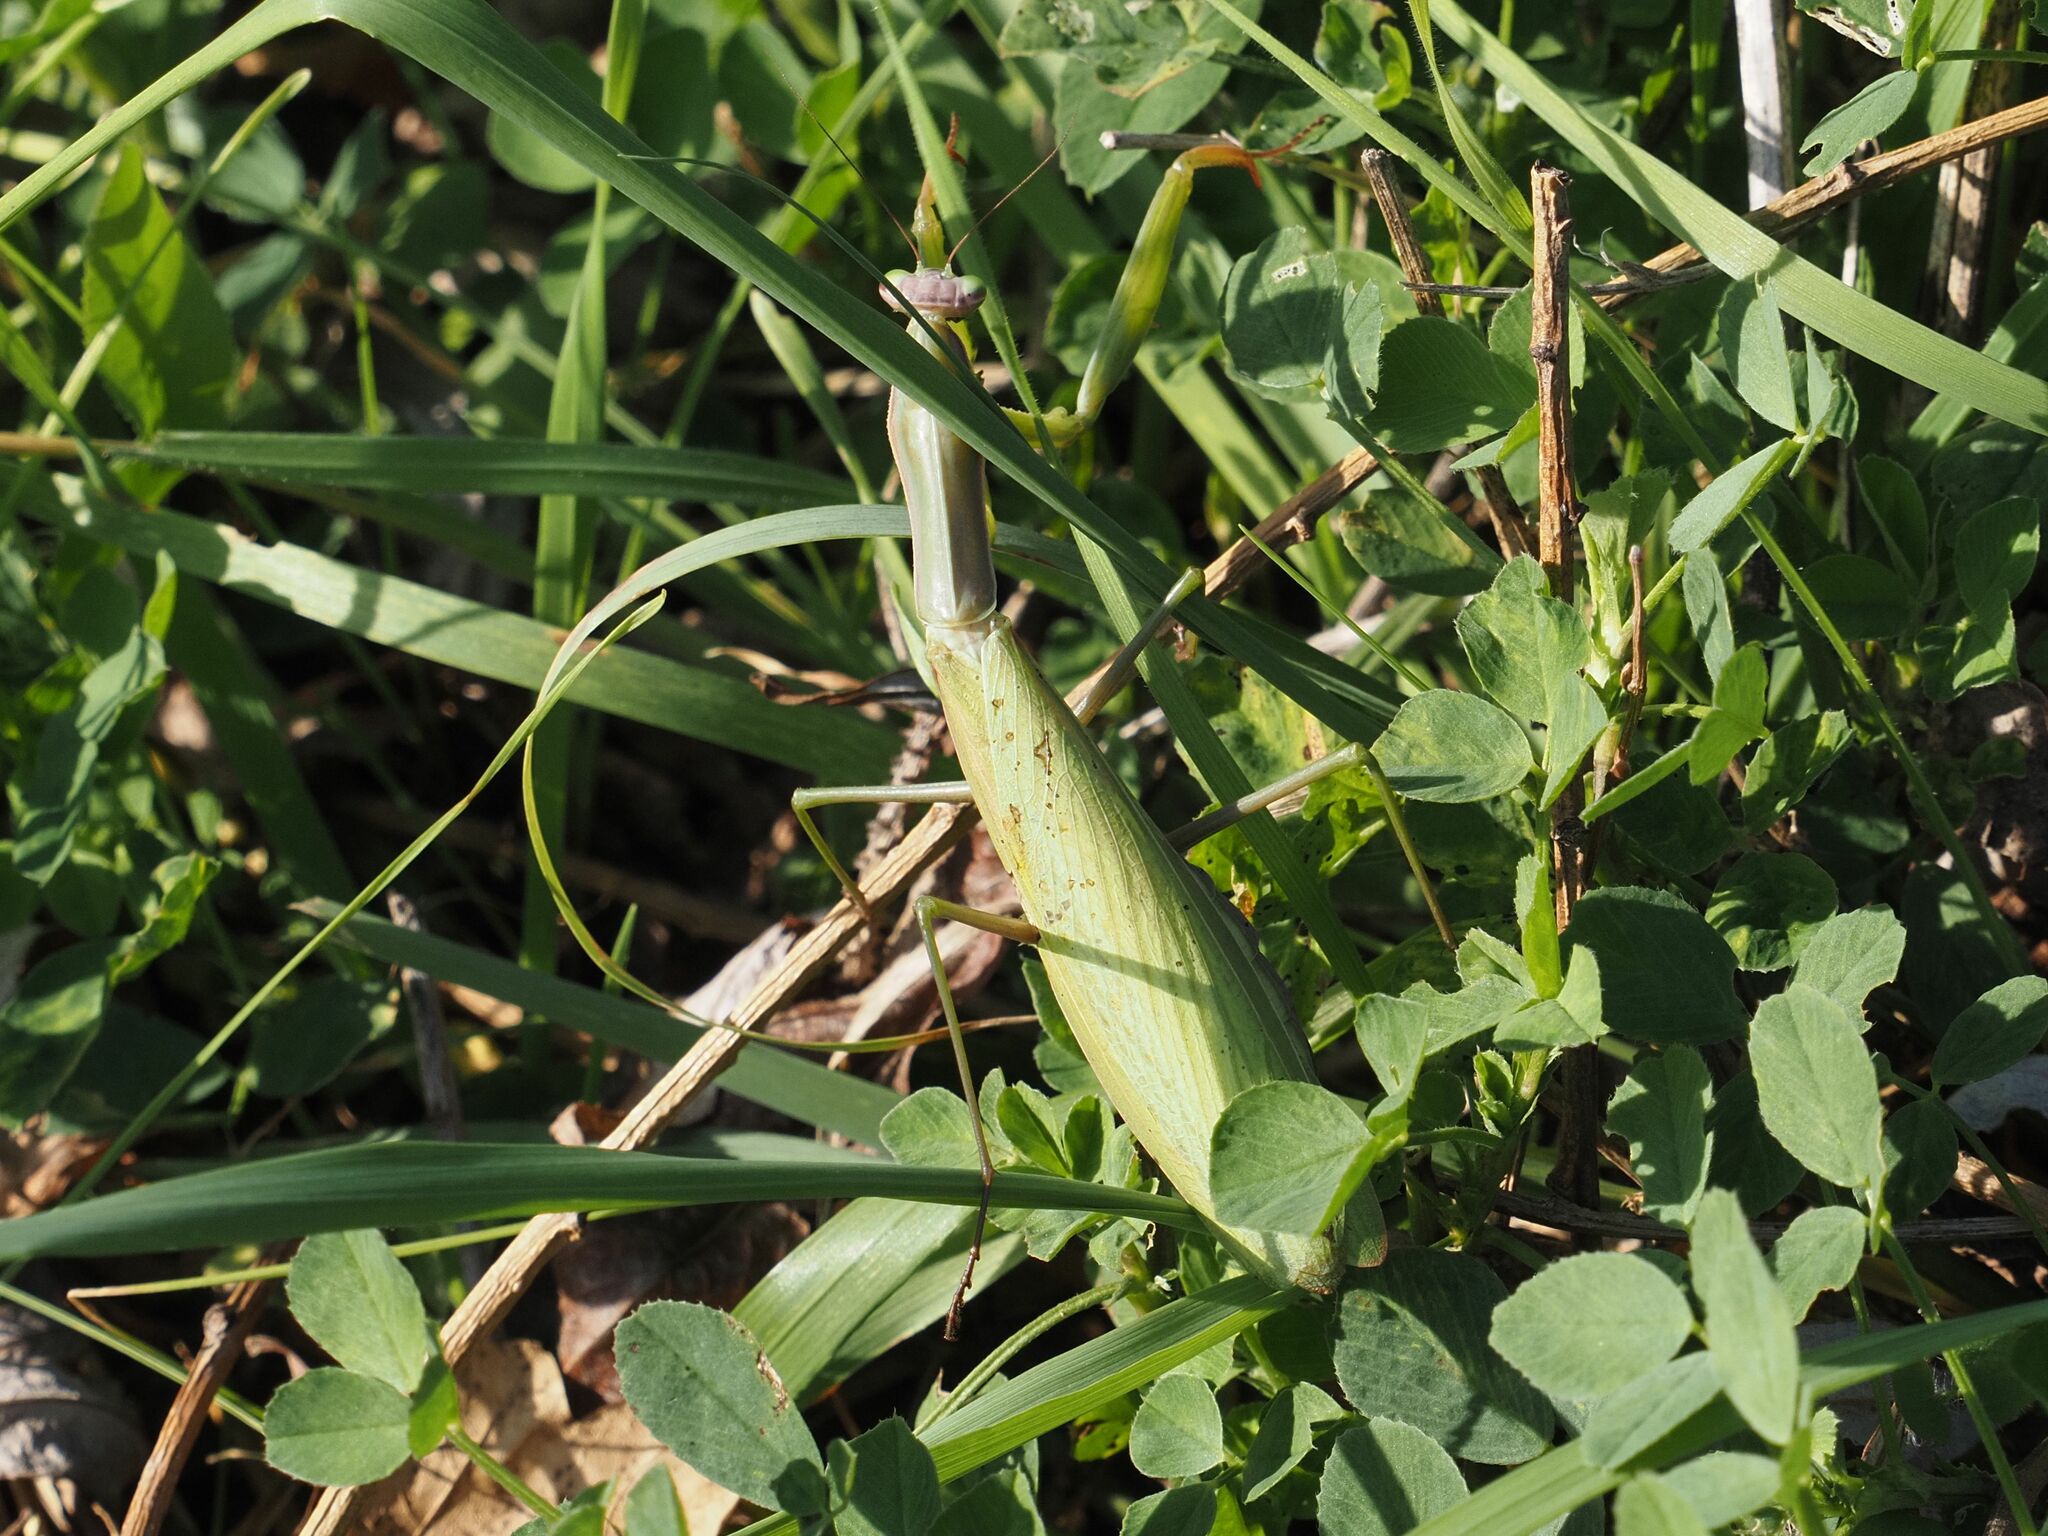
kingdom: Animalia
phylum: Arthropoda
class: Insecta
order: Mantodea
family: Mantidae
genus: Mantis
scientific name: Mantis religiosa
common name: Praying mantis
